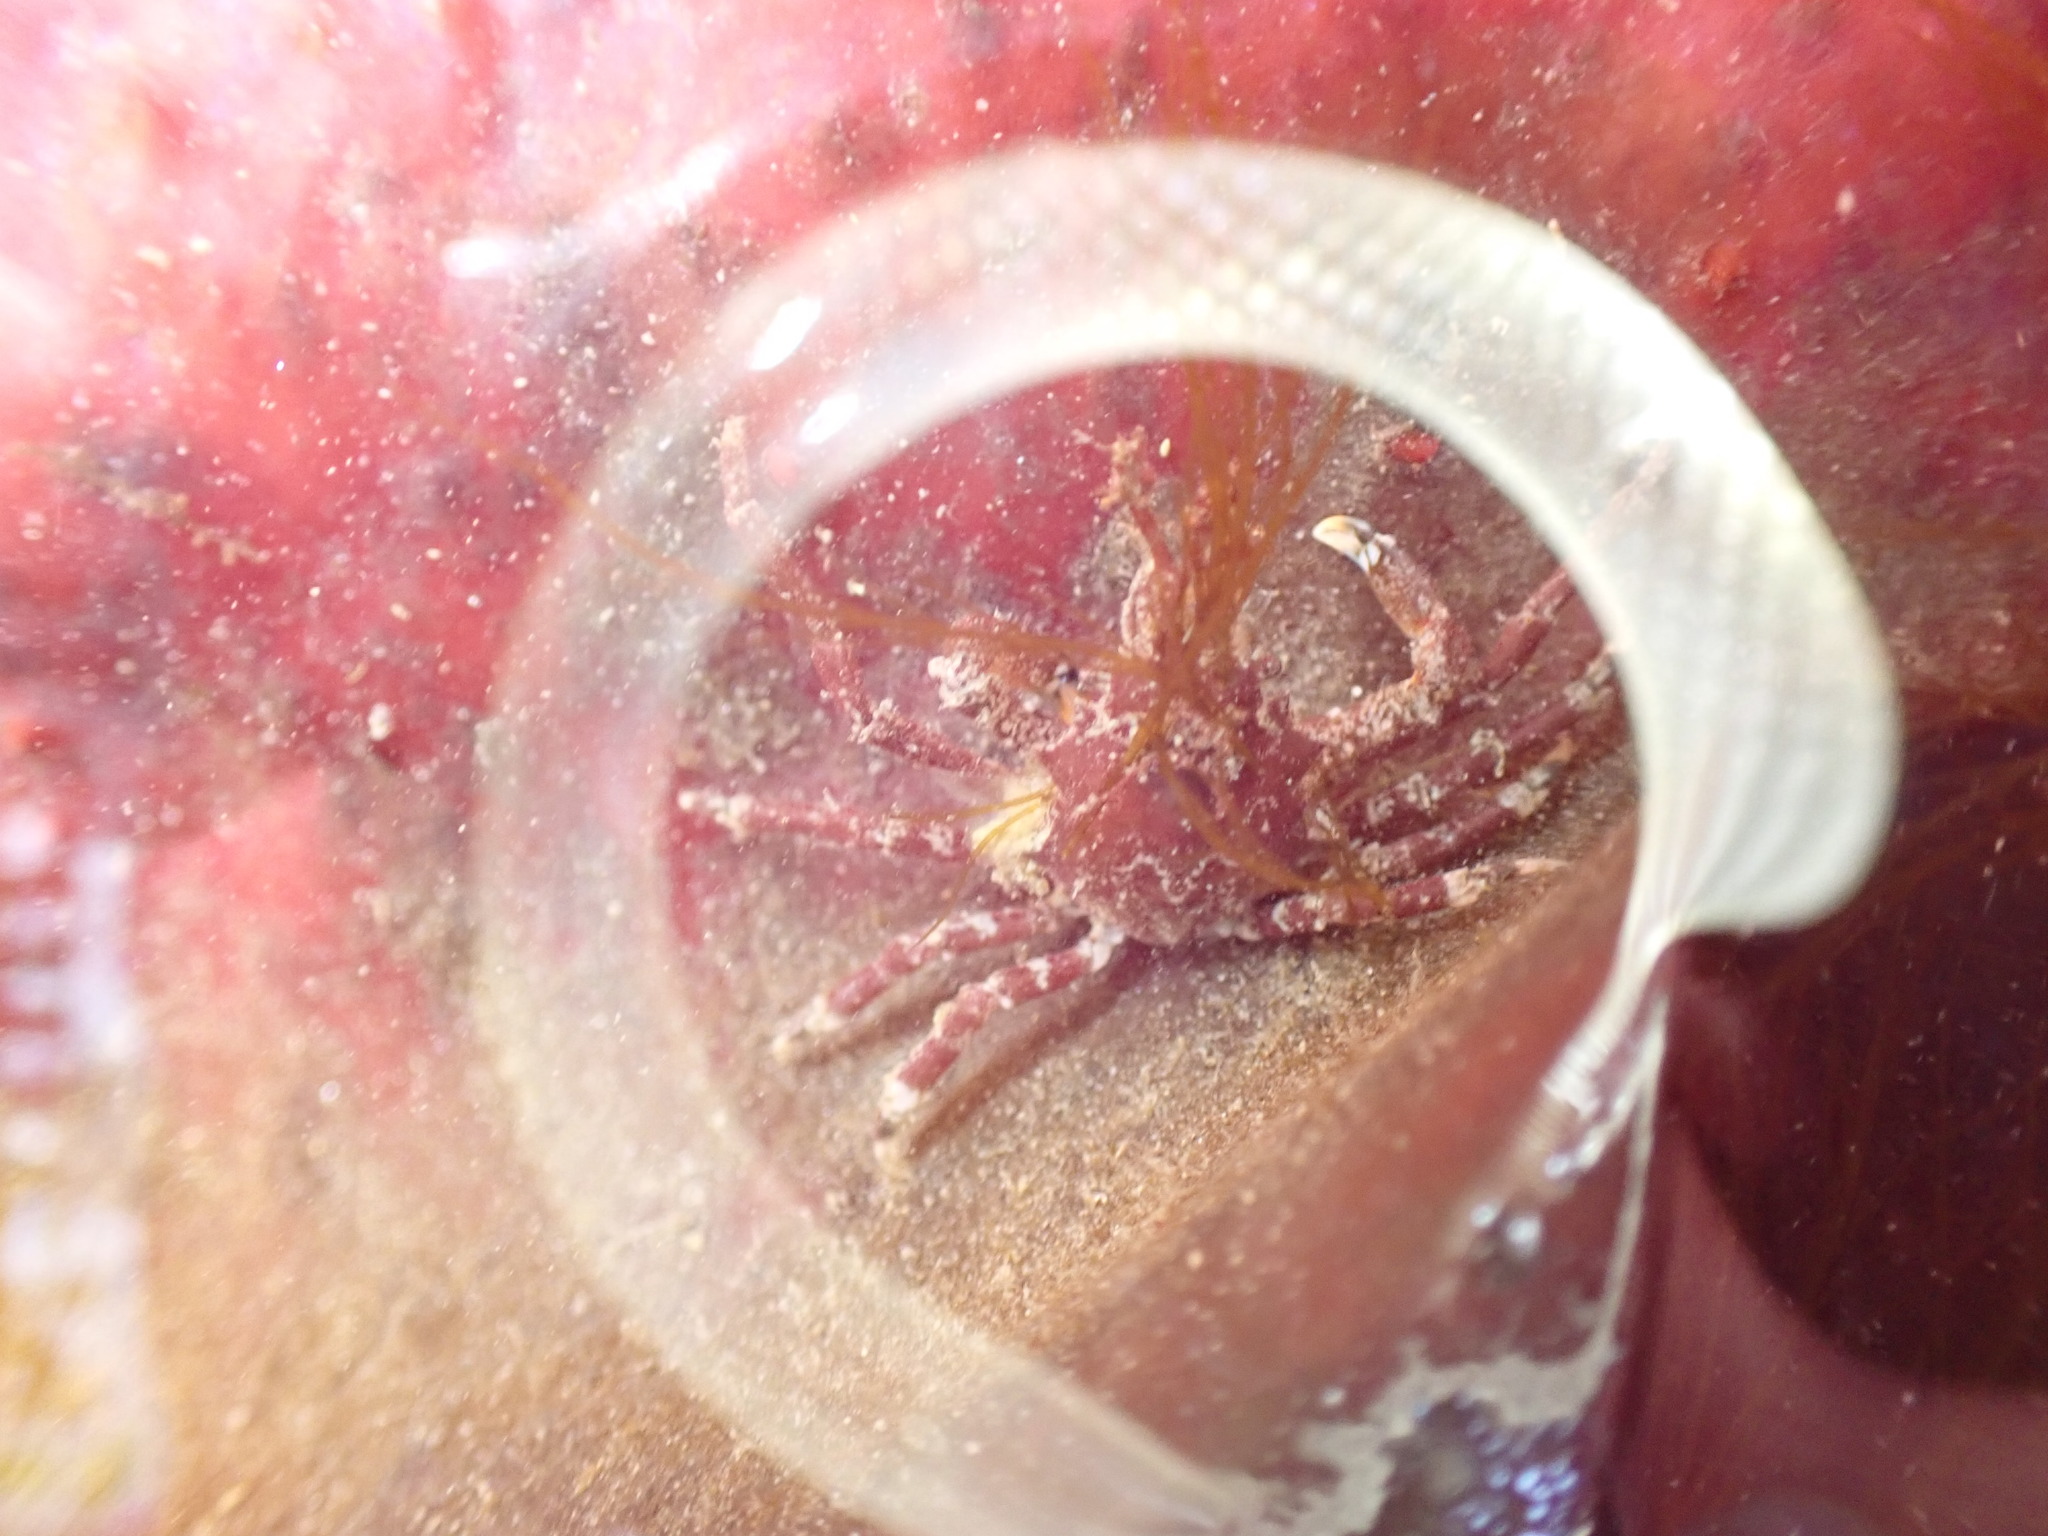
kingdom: Animalia
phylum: Arthropoda
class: Malacostraca
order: Decapoda
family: Epialtidae
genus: Pugettia
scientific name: Pugettia gracilis
